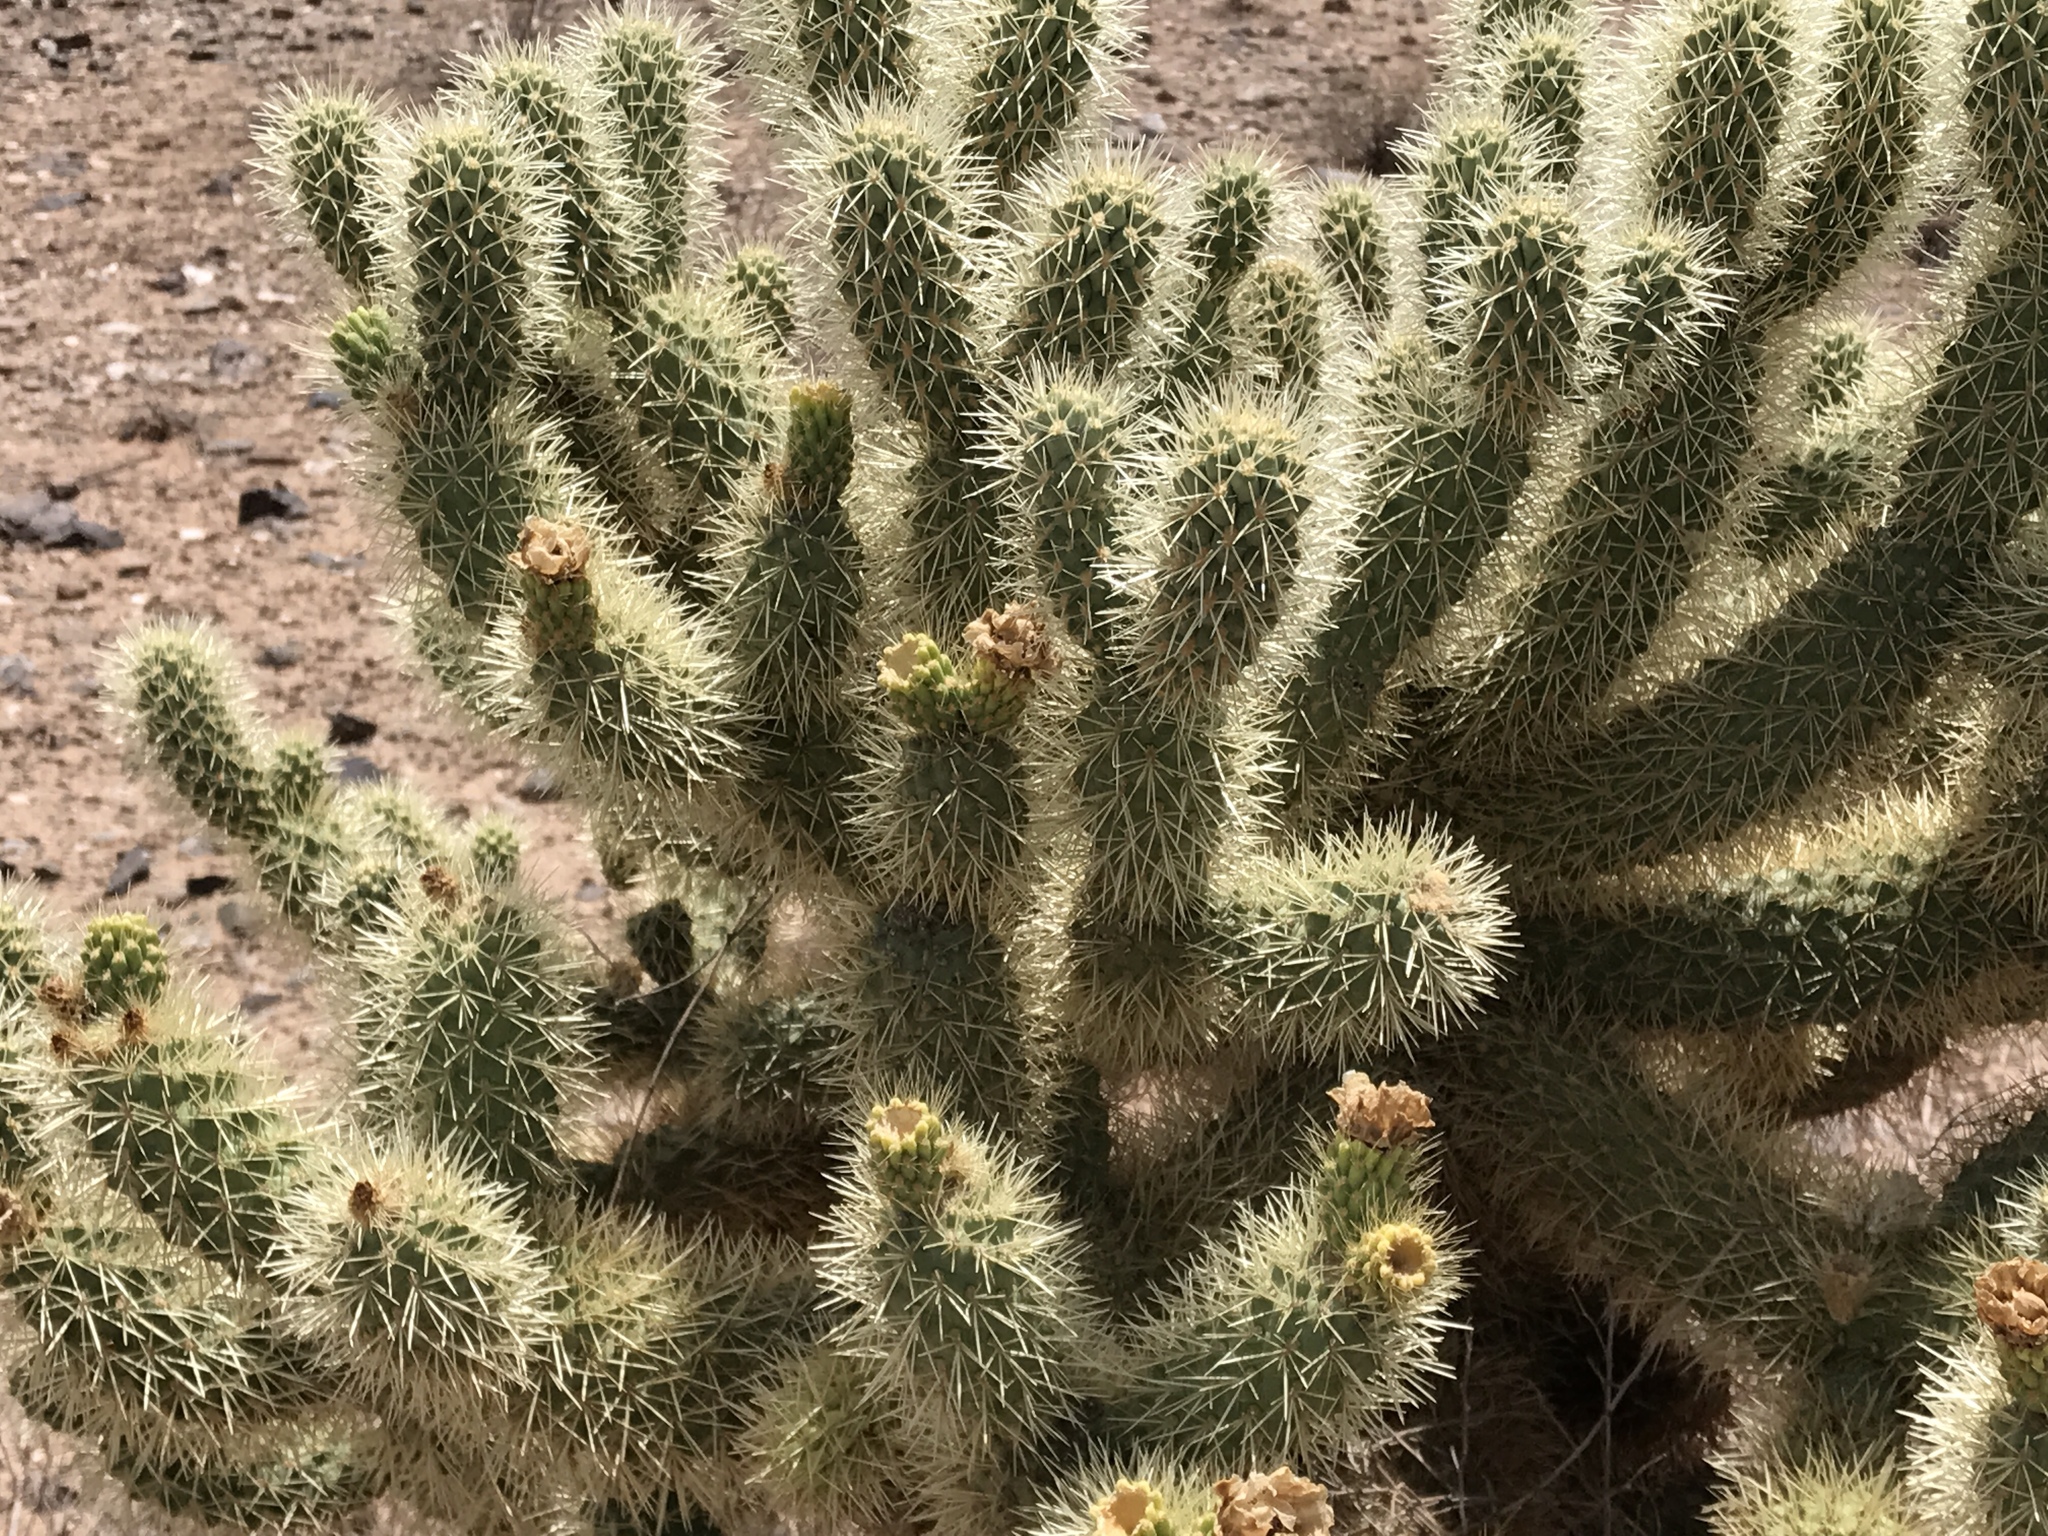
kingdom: Plantae
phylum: Tracheophyta
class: Magnoliopsida
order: Caryophyllales
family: Cactaceae
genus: Cylindropuntia
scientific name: Cylindropuntia fosbergii
